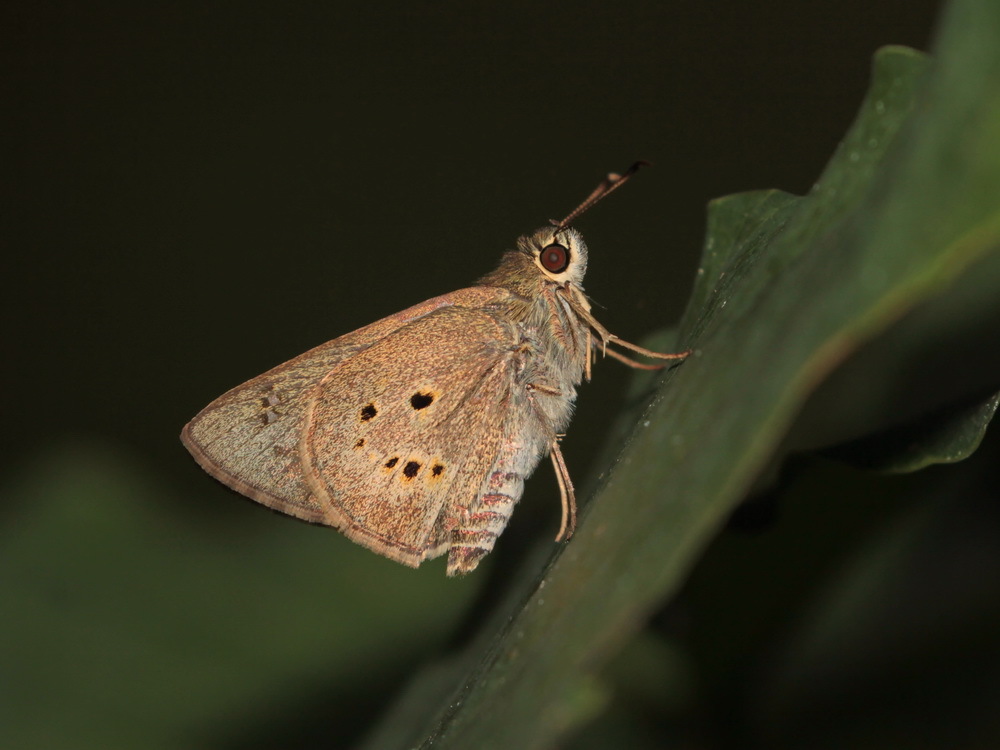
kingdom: Animalia
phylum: Arthropoda
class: Insecta
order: Lepidoptera
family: Hesperiidae
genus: Suastus
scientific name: Suastus gremius
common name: Indian palm bob
